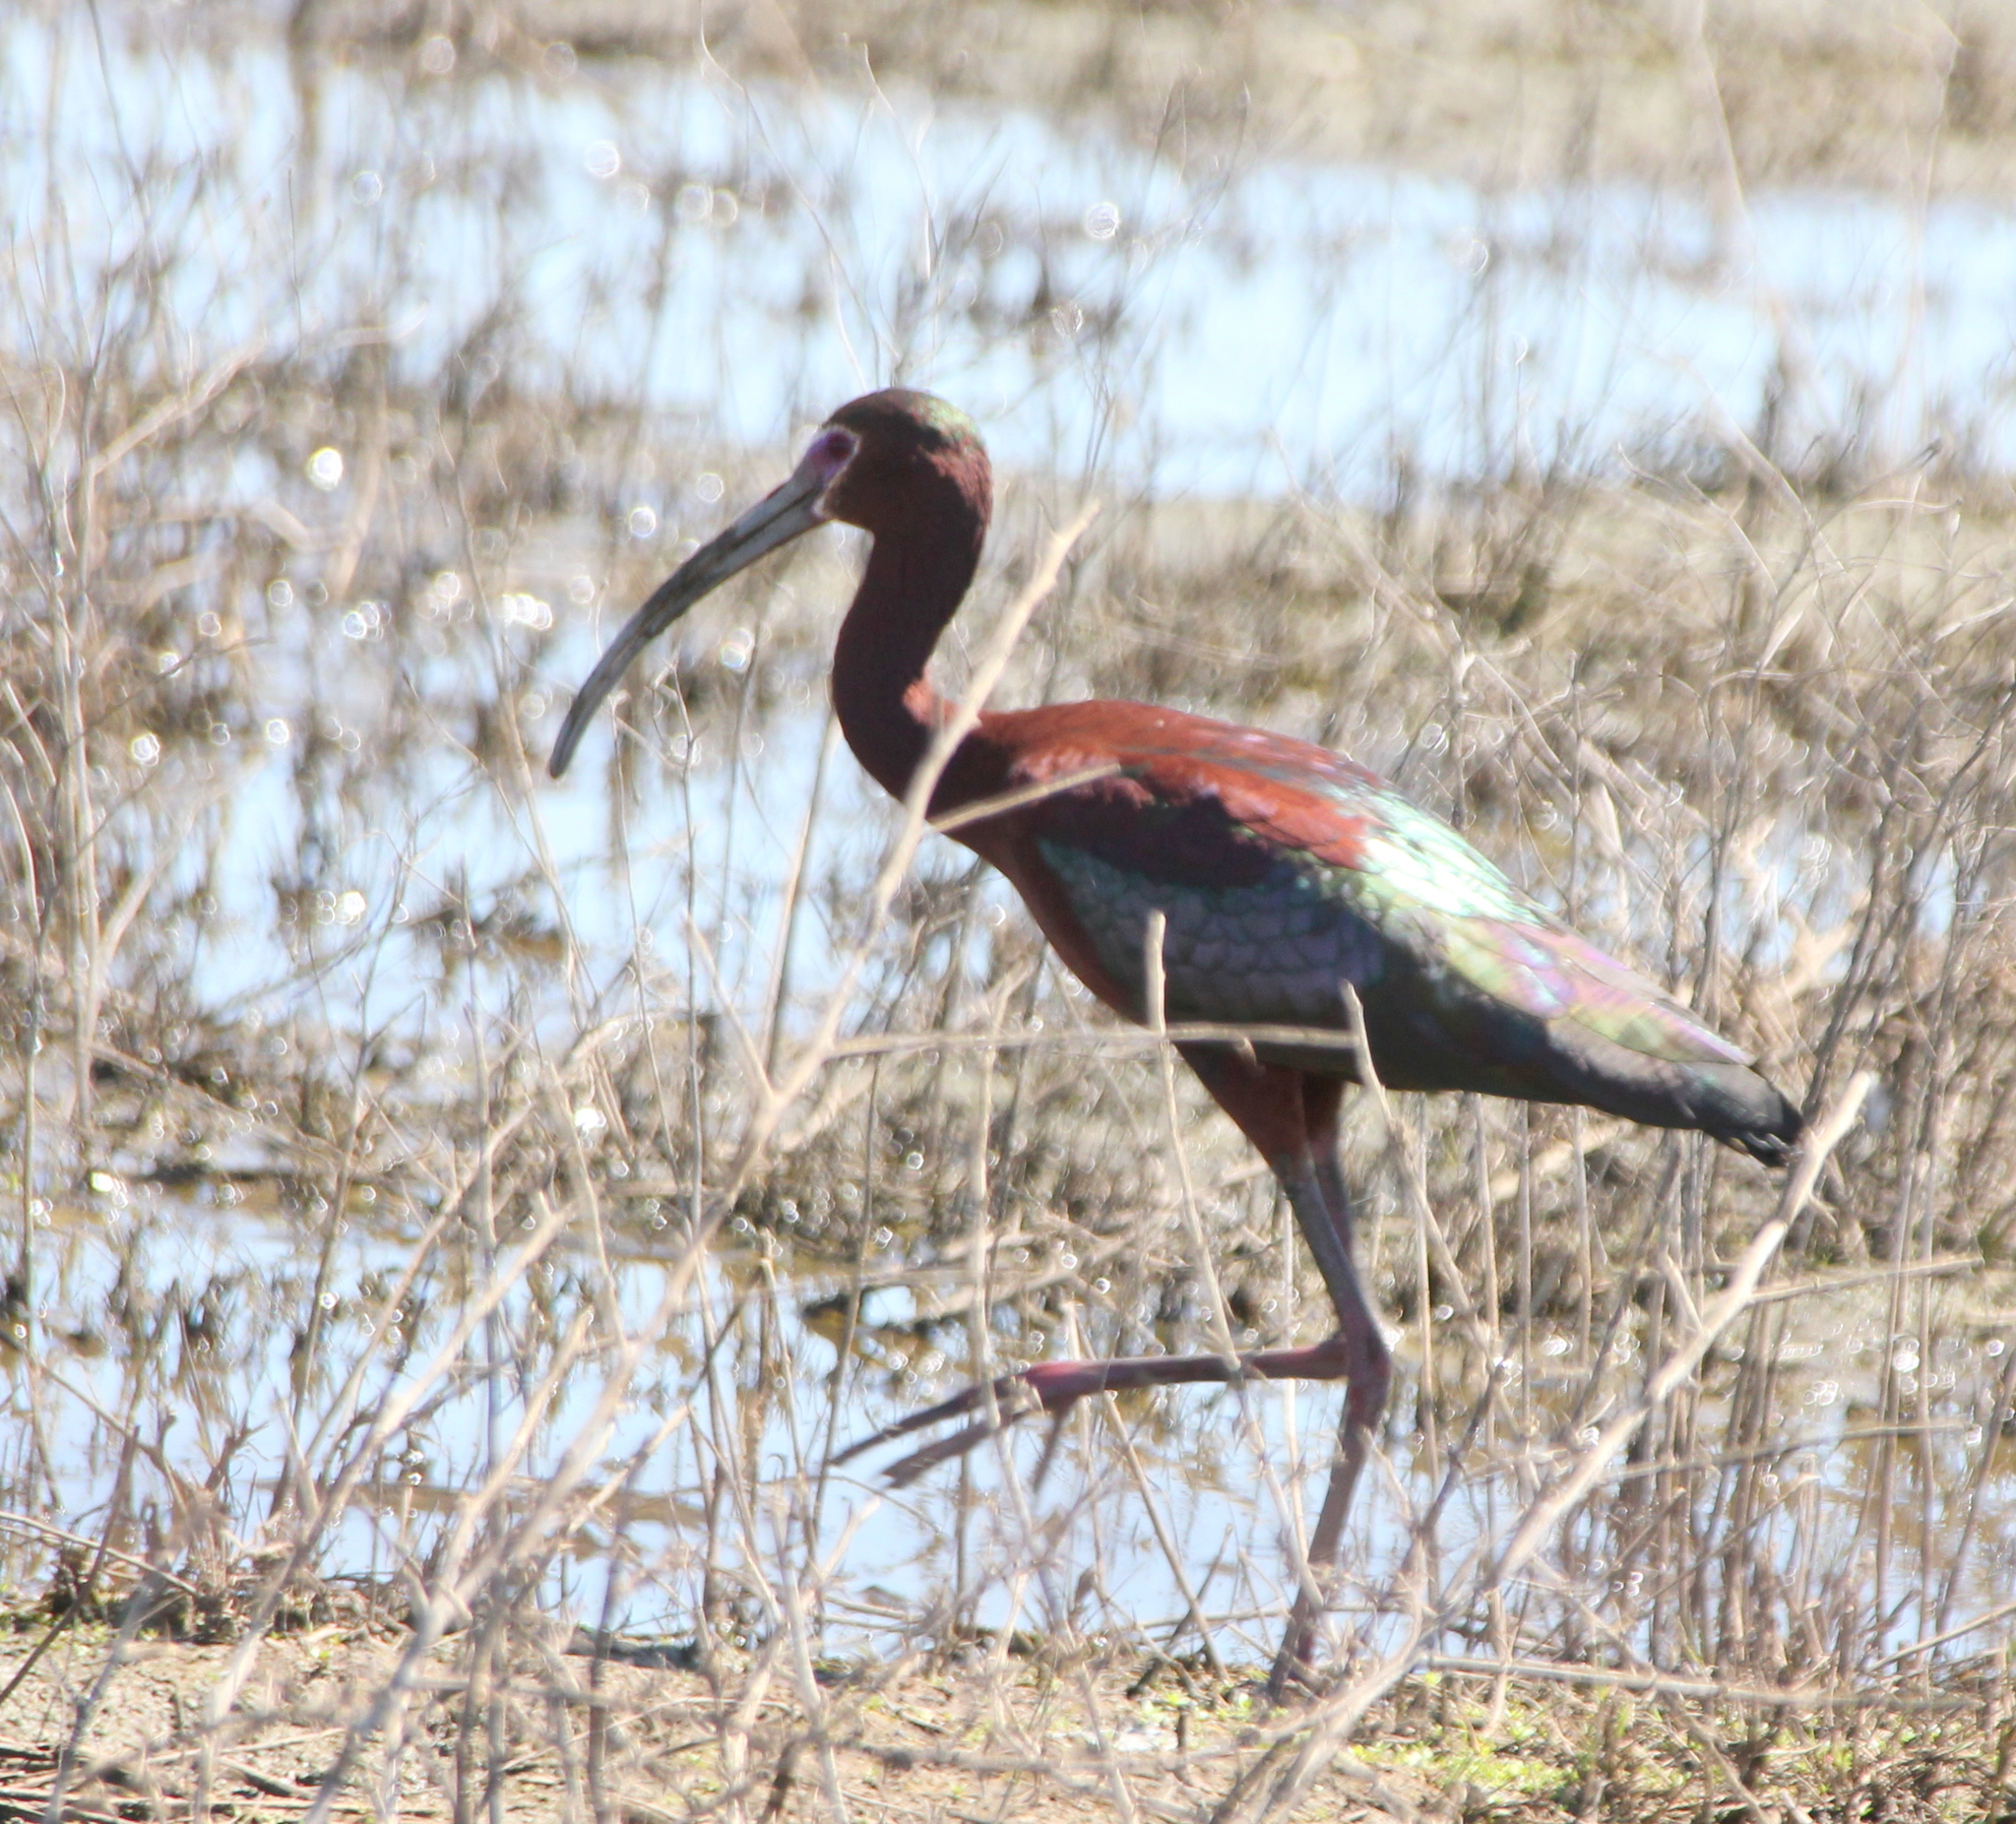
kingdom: Animalia
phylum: Chordata
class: Aves
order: Pelecaniformes
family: Threskiornithidae
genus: Plegadis
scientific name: Plegadis chihi
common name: White-faced ibis
